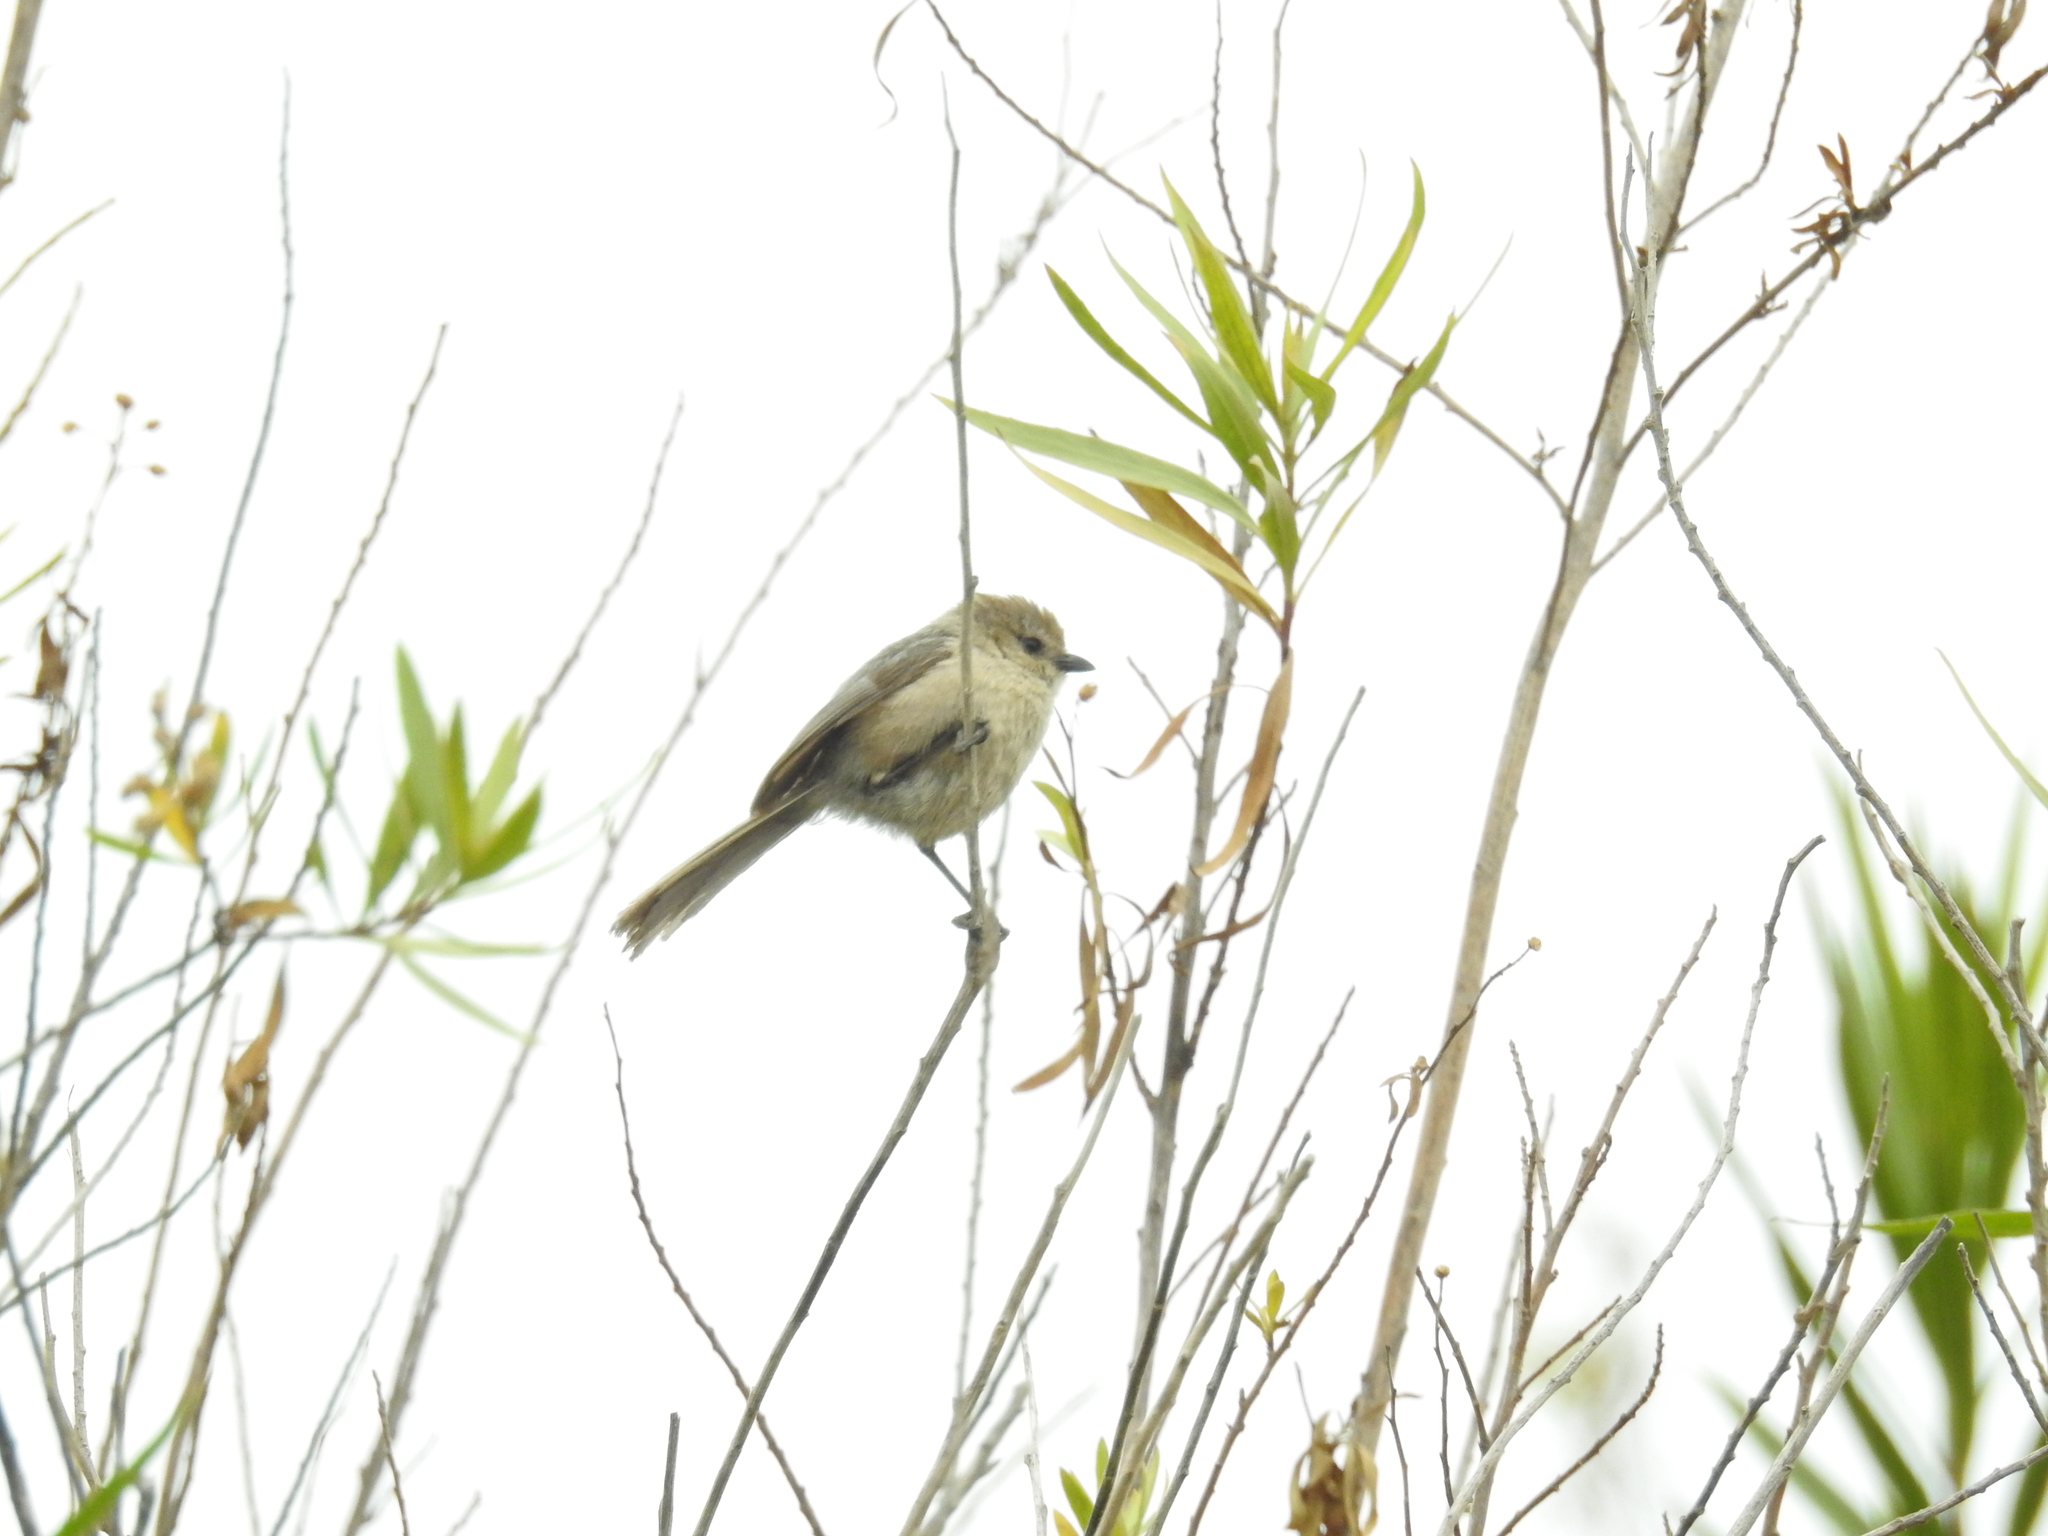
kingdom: Animalia
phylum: Chordata
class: Aves
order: Passeriformes
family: Aegithalidae
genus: Psaltriparus
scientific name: Psaltriparus minimus
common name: American bushtit
